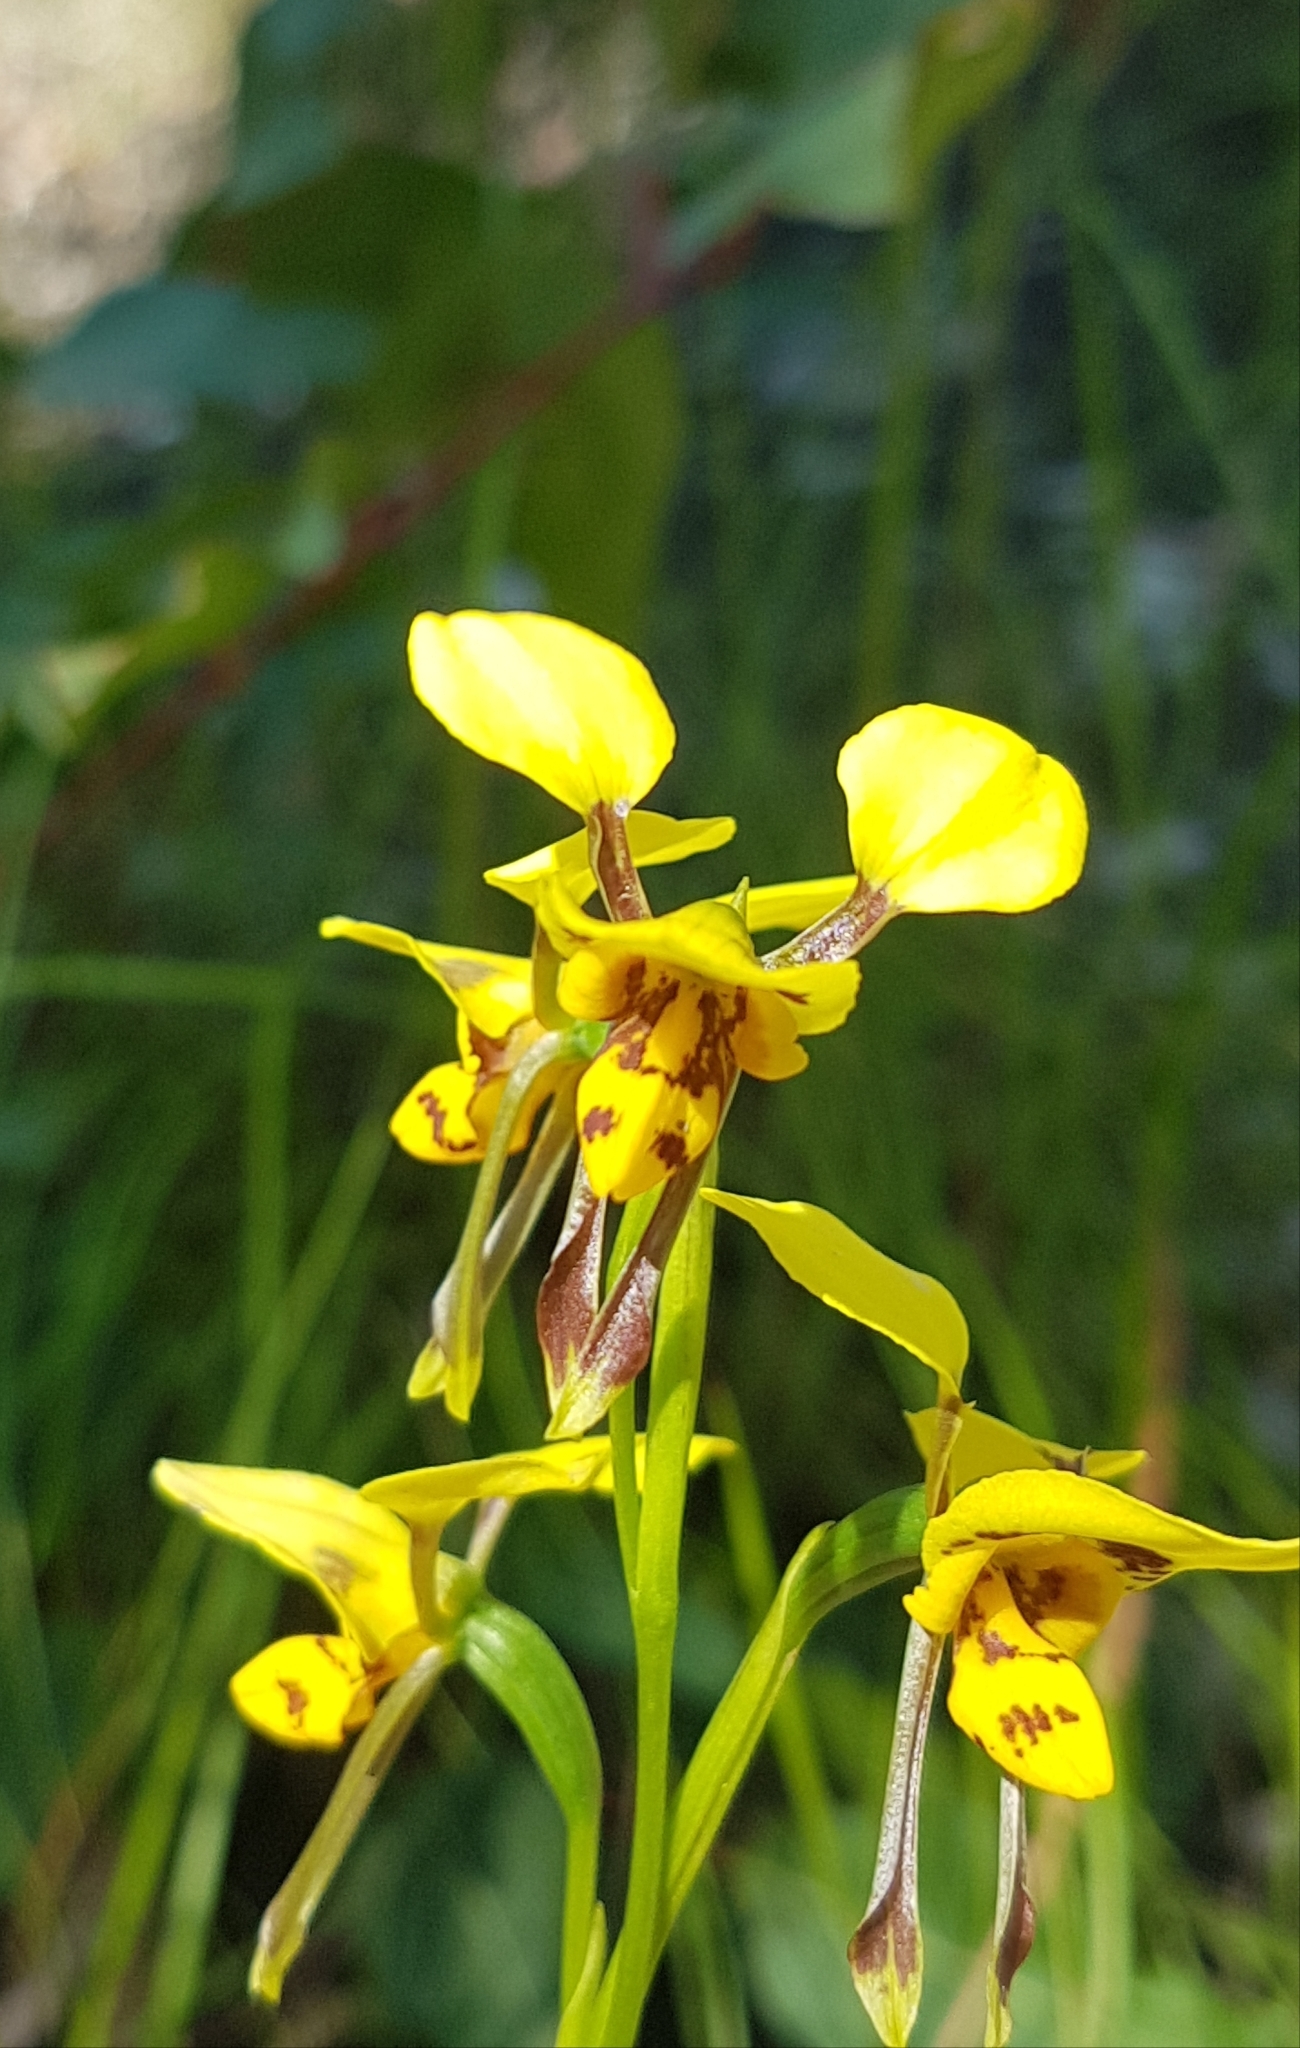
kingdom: Plantae
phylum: Tracheophyta
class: Liliopsida
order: Asparagales
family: Orchidaceae
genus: Diuris
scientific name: Diuris sulphurea
